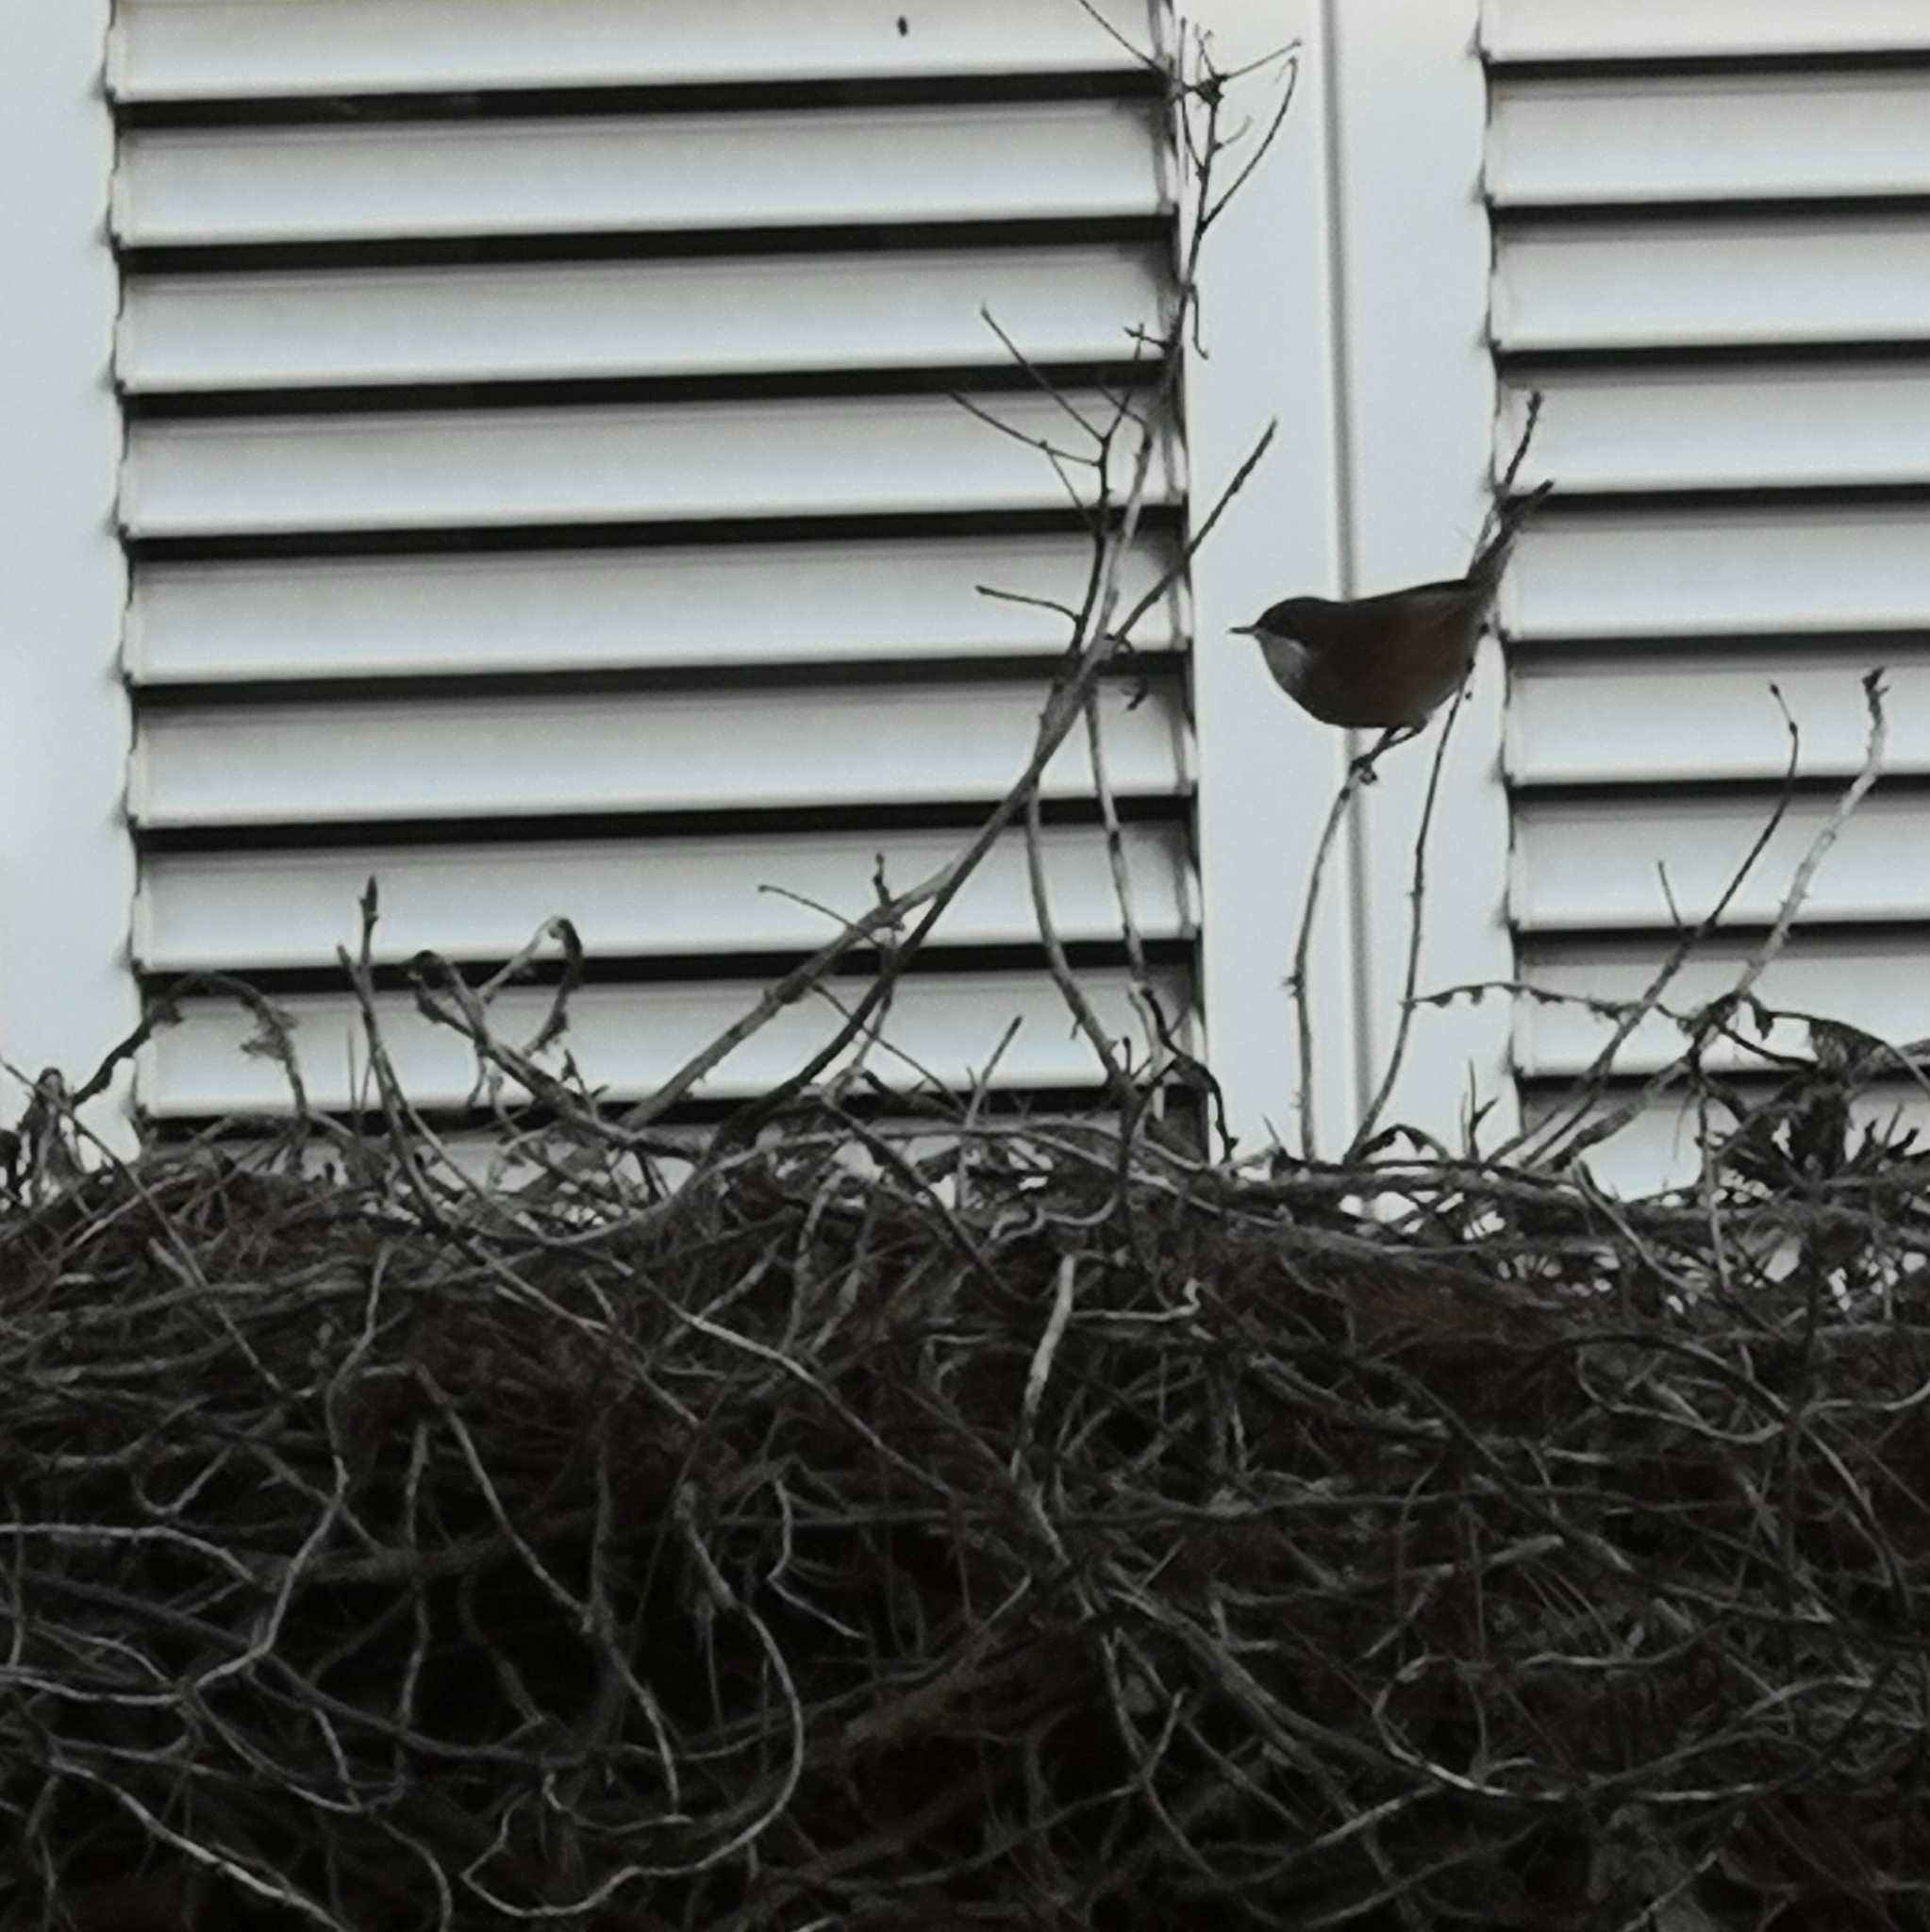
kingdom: Animalia
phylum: Chordata
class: Aves
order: Passeriformes
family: Sylviidae
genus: Curruca
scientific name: Curruca melanocephala
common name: Sardinian warbler
